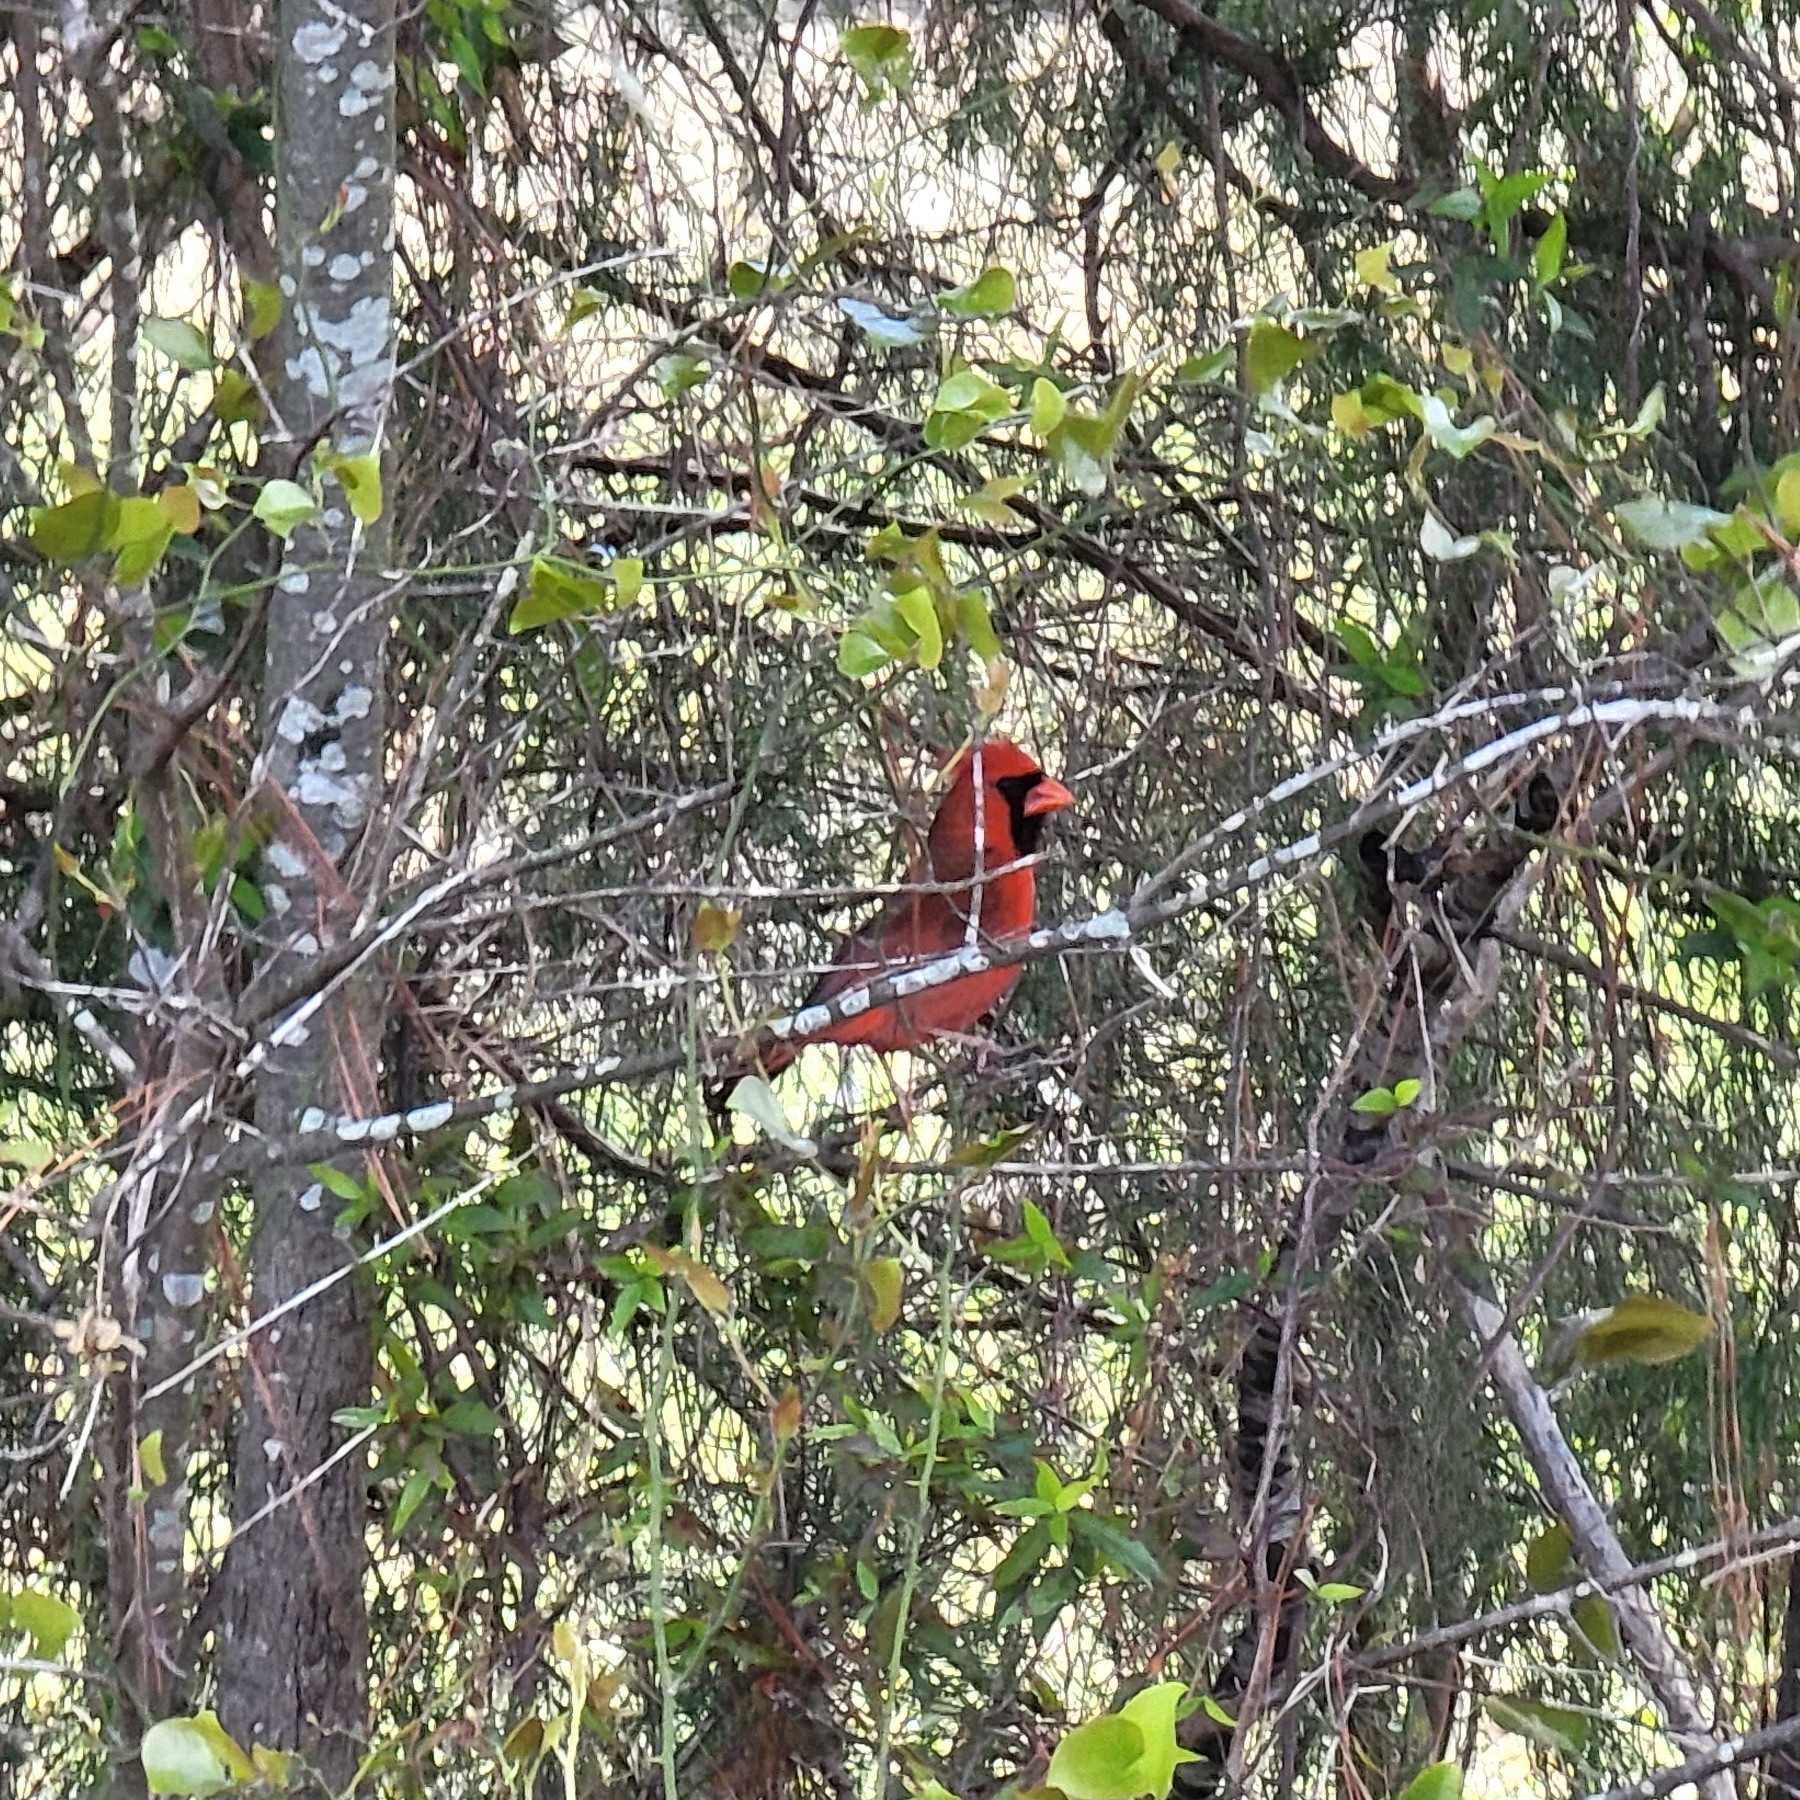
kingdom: Animalia
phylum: Chordata
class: Aves
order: Passeriformes
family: Cardinalidae
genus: Cardinalis
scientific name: Cardinalis cardinalis
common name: Northern cardinal
